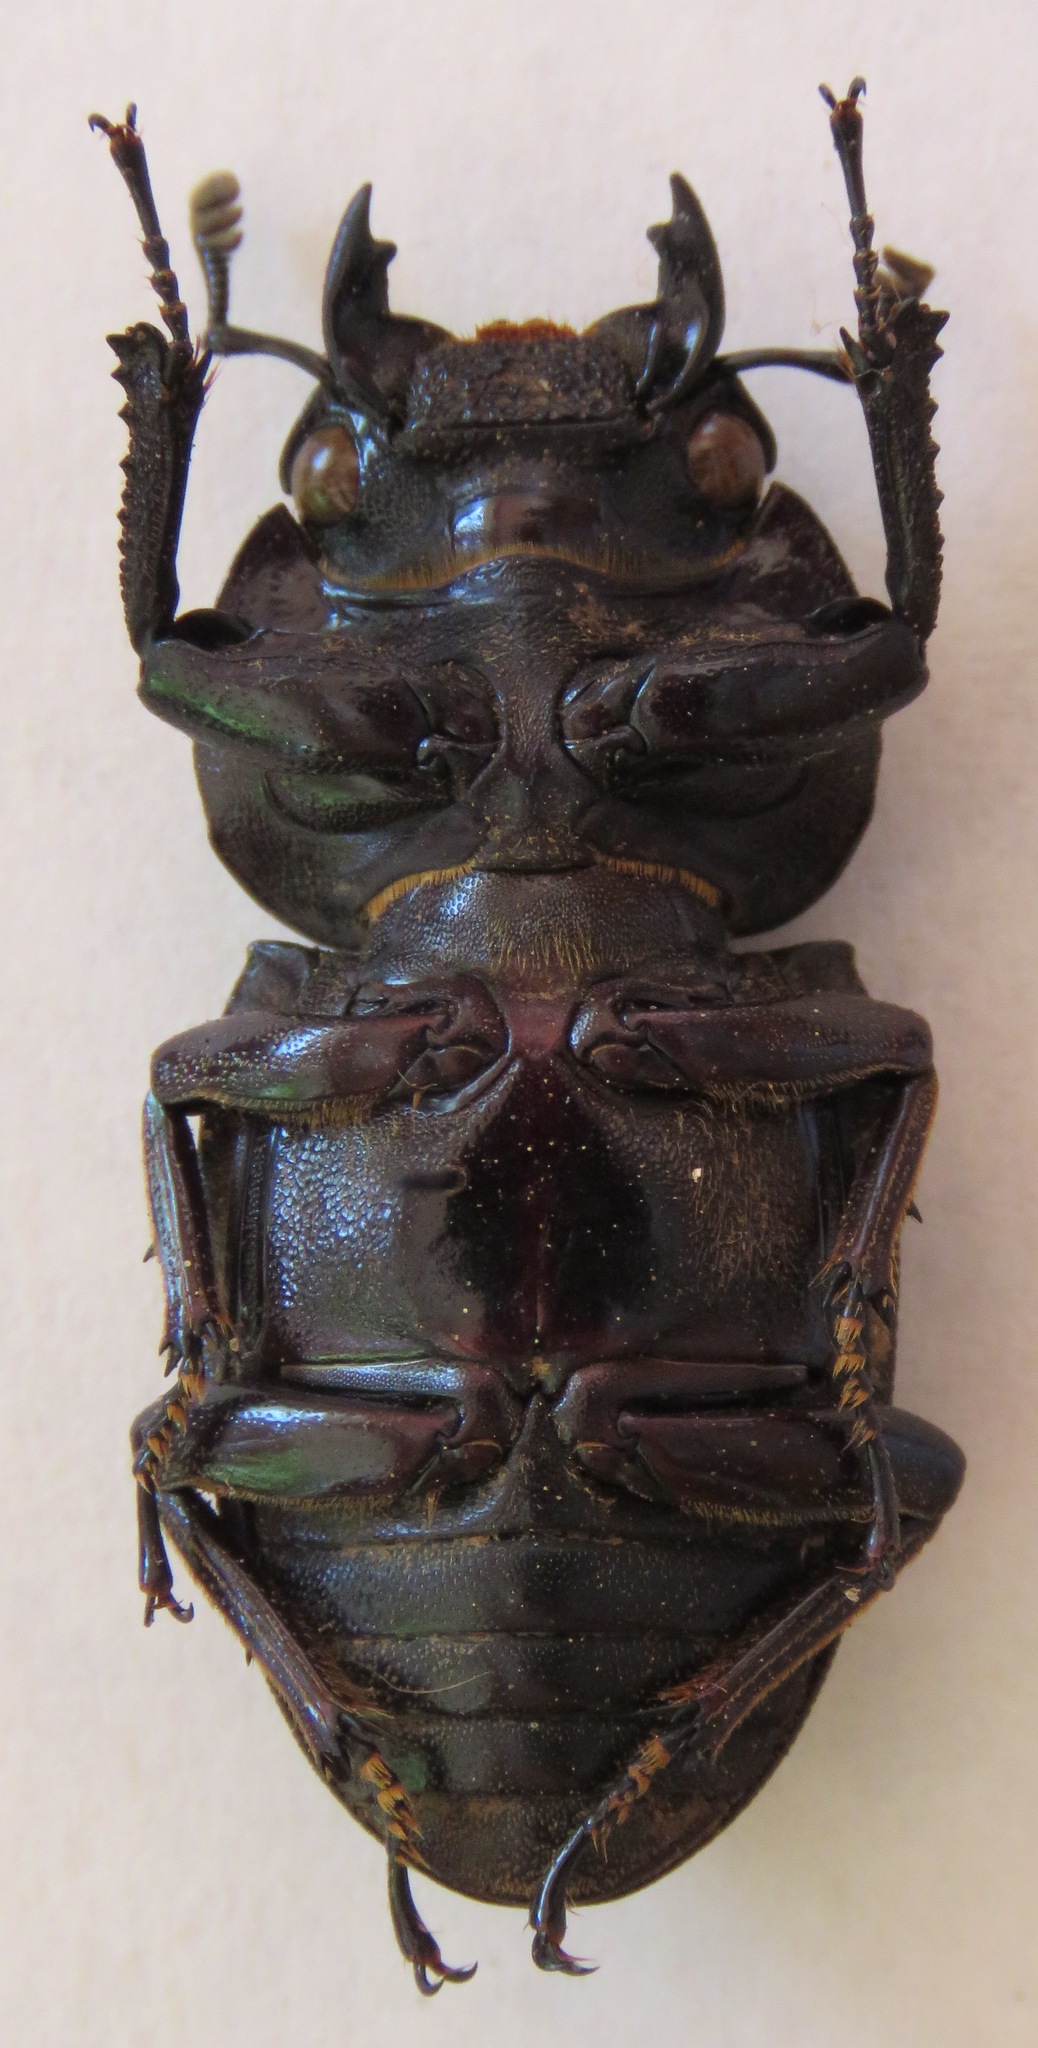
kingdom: Animalia
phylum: Arthropoda
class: Insecta
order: Coleoptera
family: Lucanidae
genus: Dorcus
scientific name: Dorcus ritsemae
